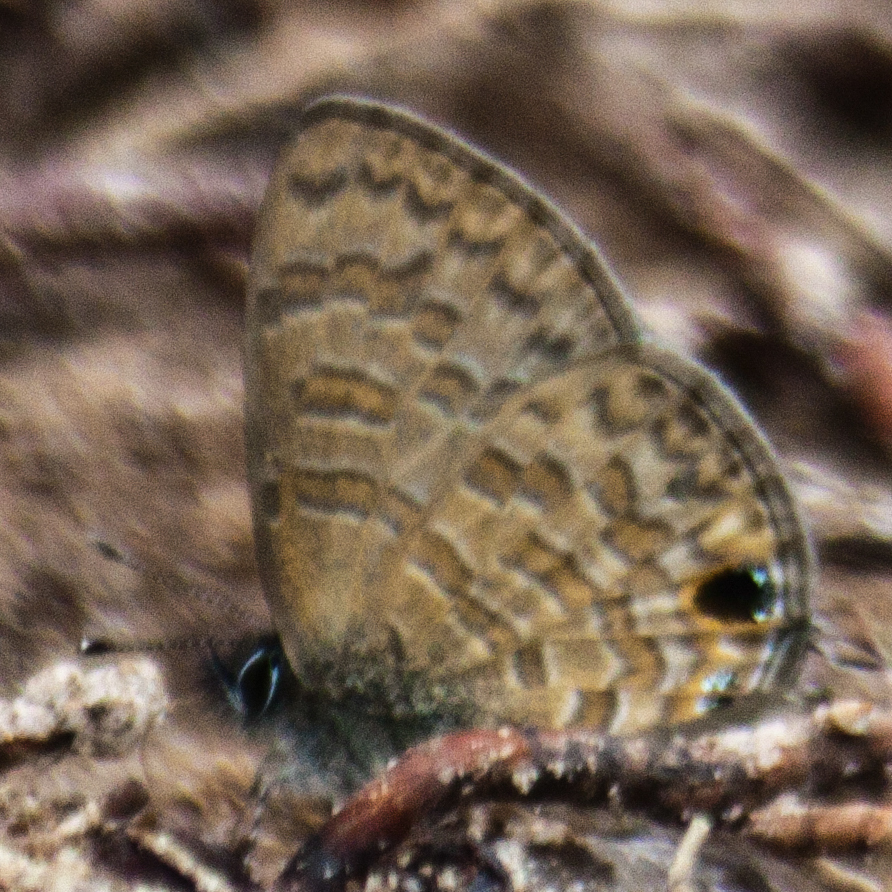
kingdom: Animalia
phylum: Arthropoda
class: Insecta
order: Lepidoptera
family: Lycaenidae
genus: Prosotas
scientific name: Prosotas nora
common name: Common line blue
